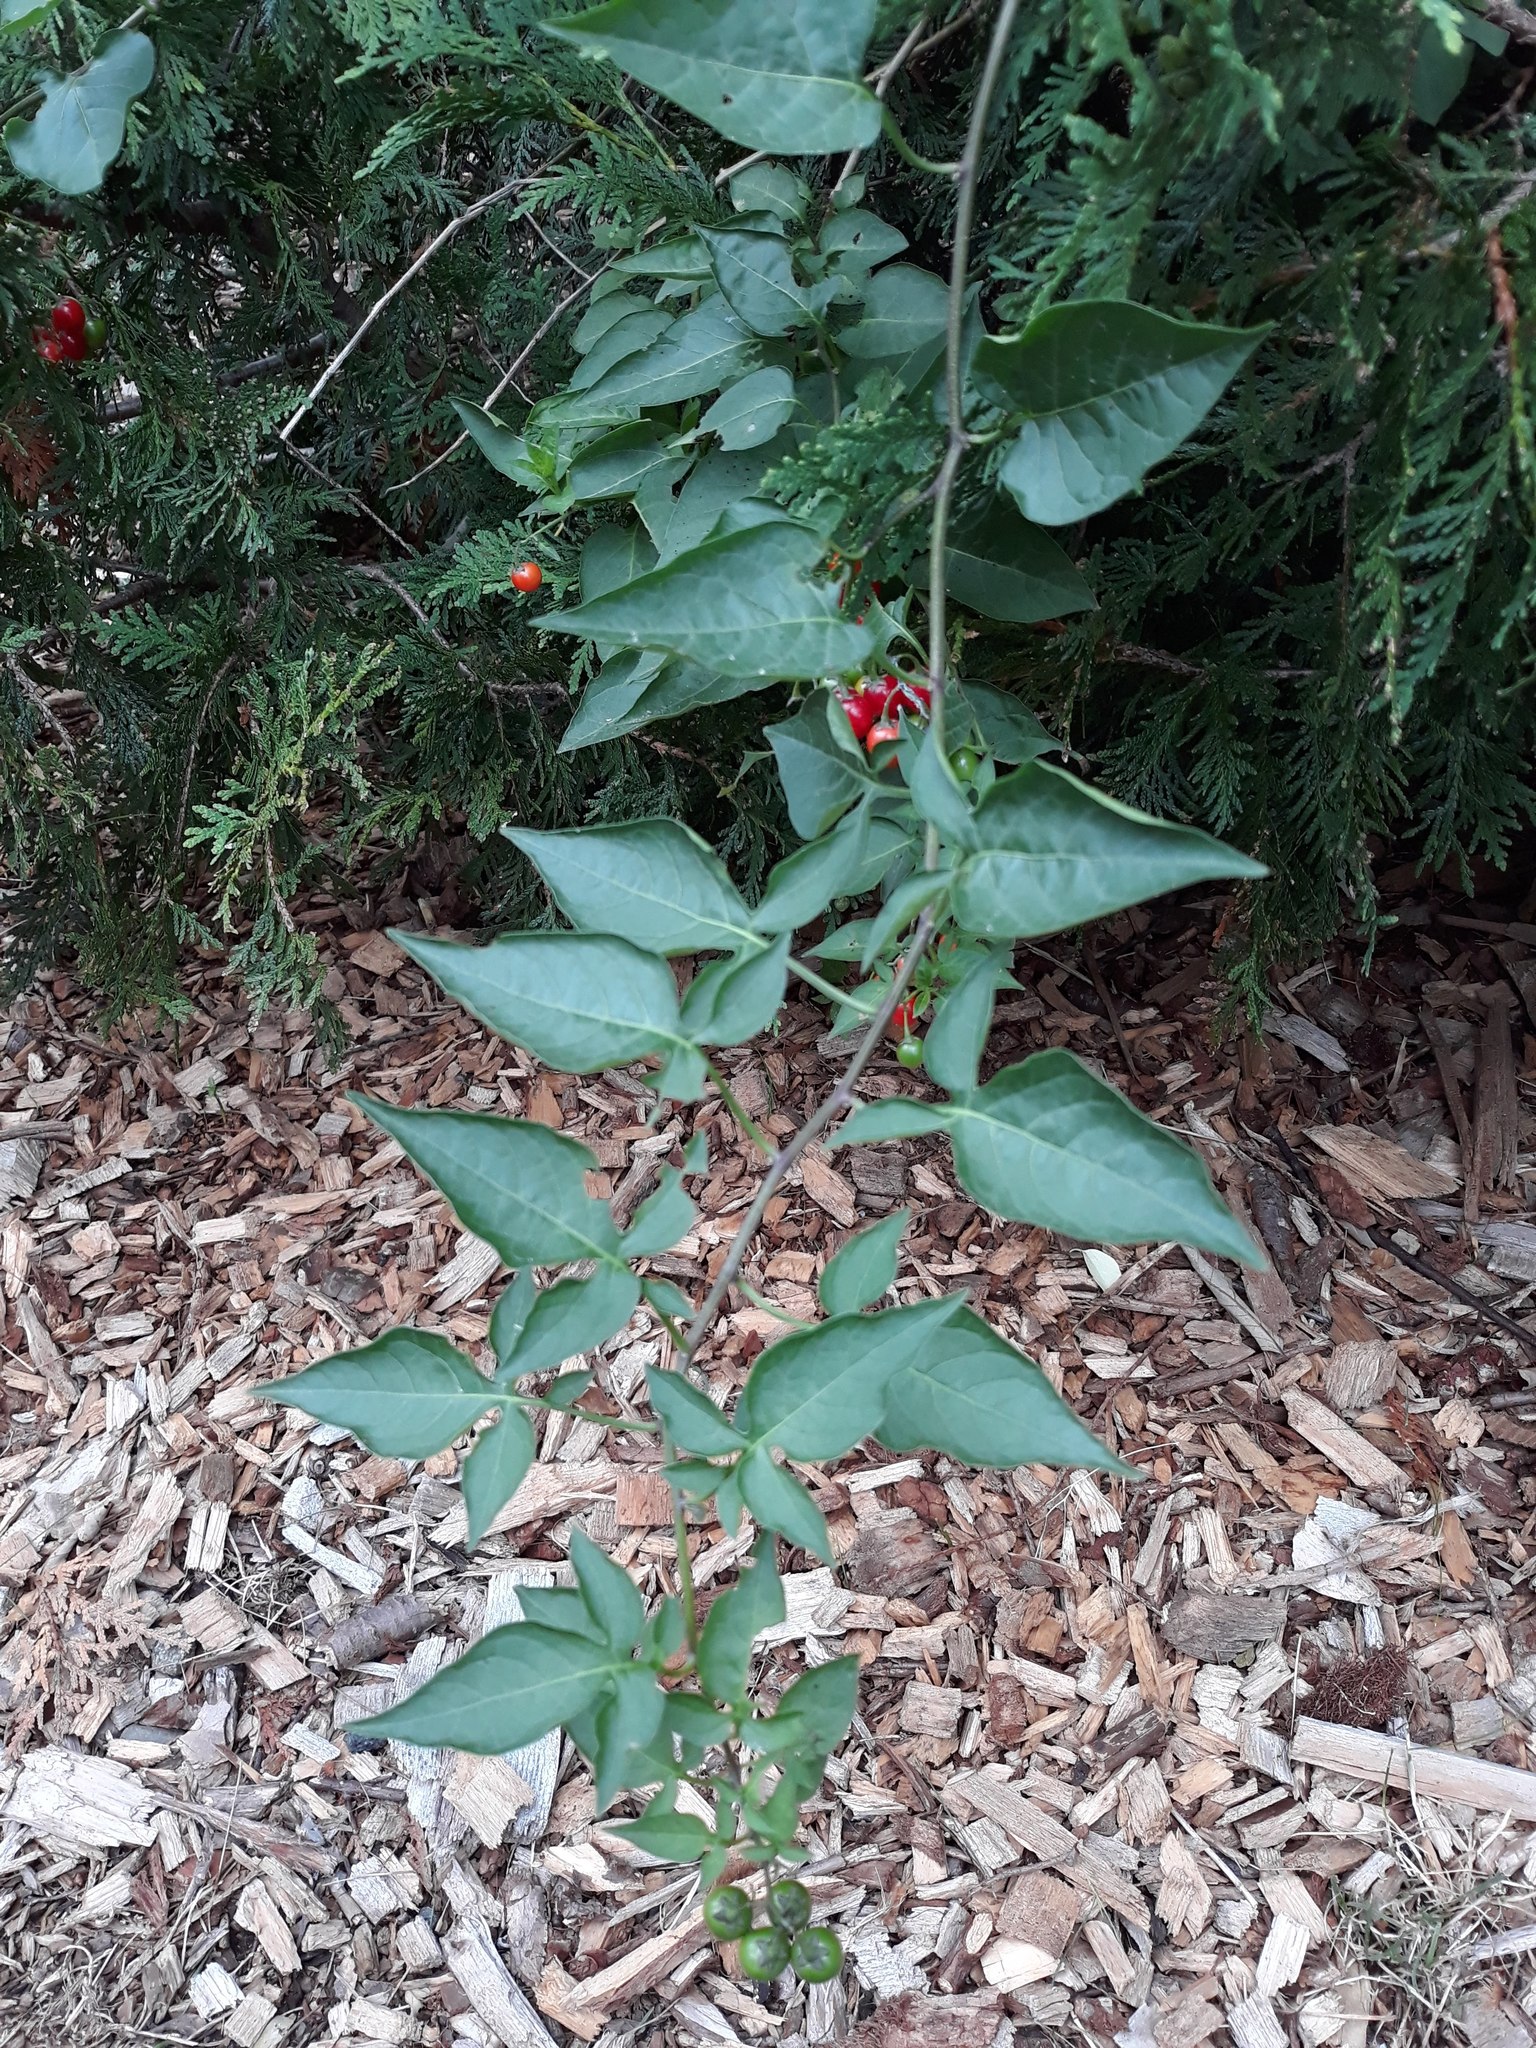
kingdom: Plantae
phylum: Tracheophyta
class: Magnoliopsida
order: Solanales
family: Solanaceae
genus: Solanum
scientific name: Solanum dulcamara
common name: Climbing nightshade
